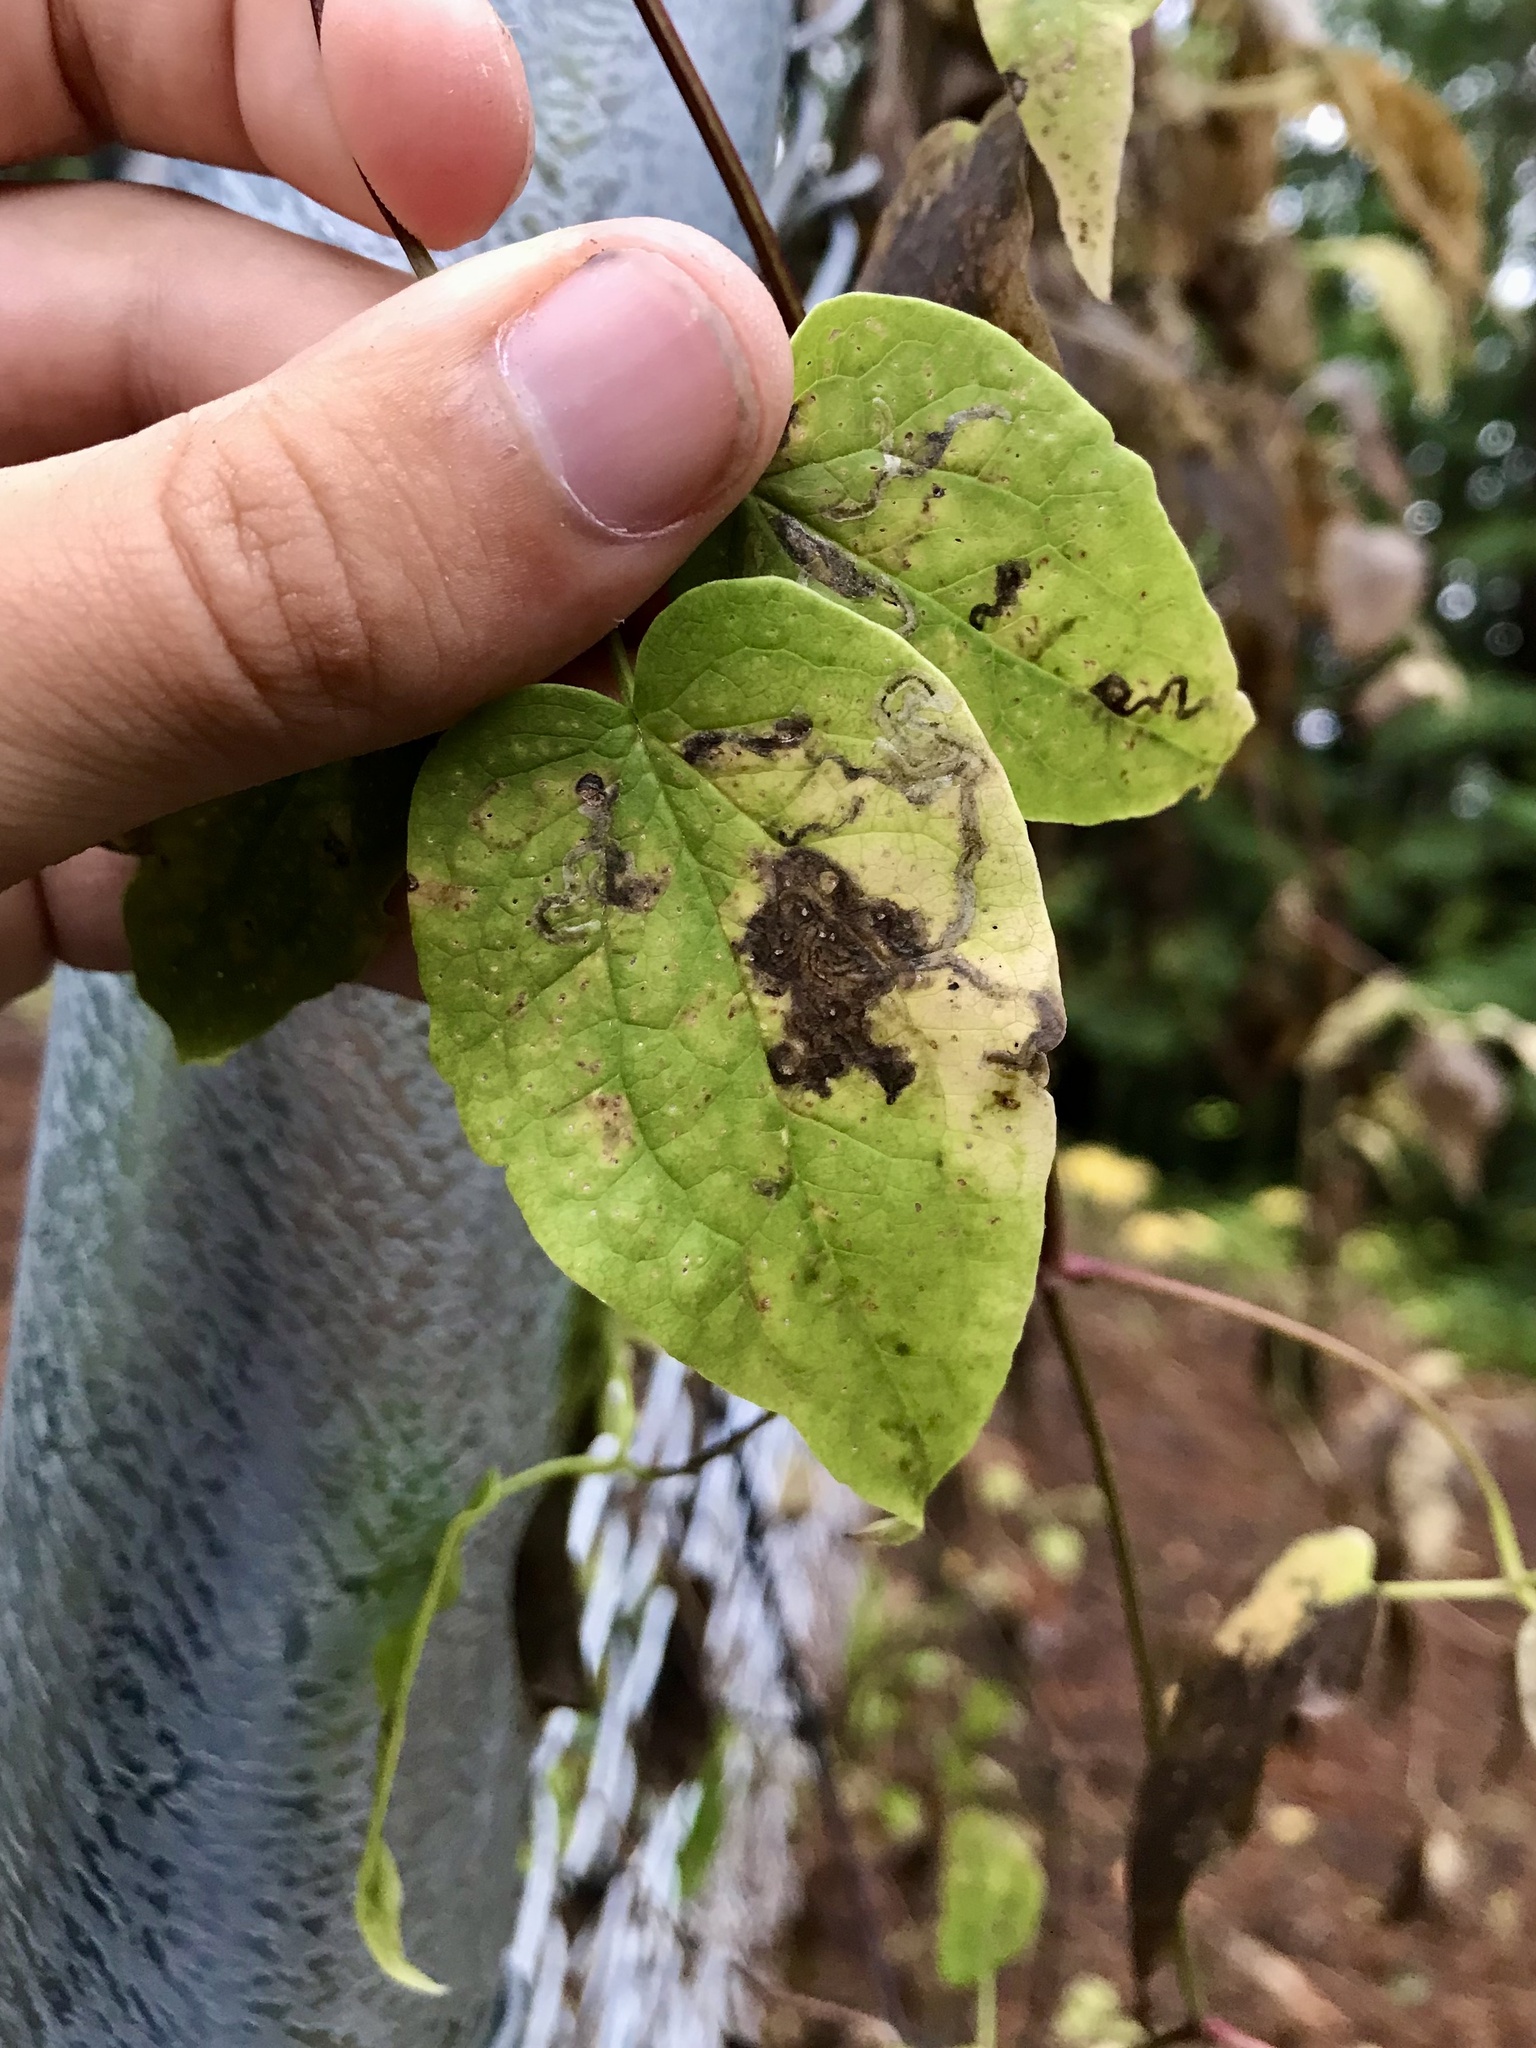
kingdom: Animalia
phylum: Arthropoda
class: Insecta
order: Diptera
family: Agromyzidae
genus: Phytomyza
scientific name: Phytomyza loewii
